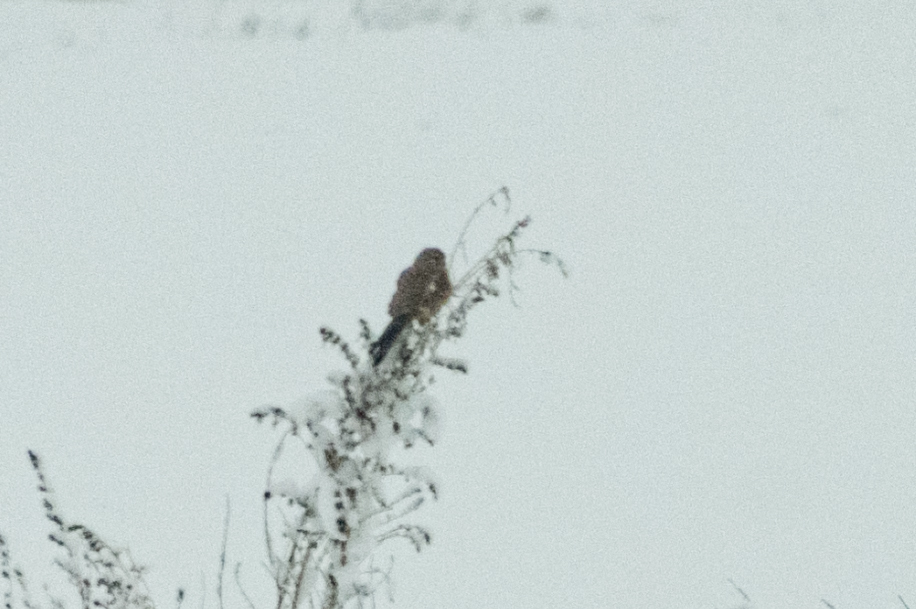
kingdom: Animalia
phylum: Chordata
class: Aves
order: Falconiformes
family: Falconidae
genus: Falco
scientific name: Falco tinnunculus
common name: Common kestrel
